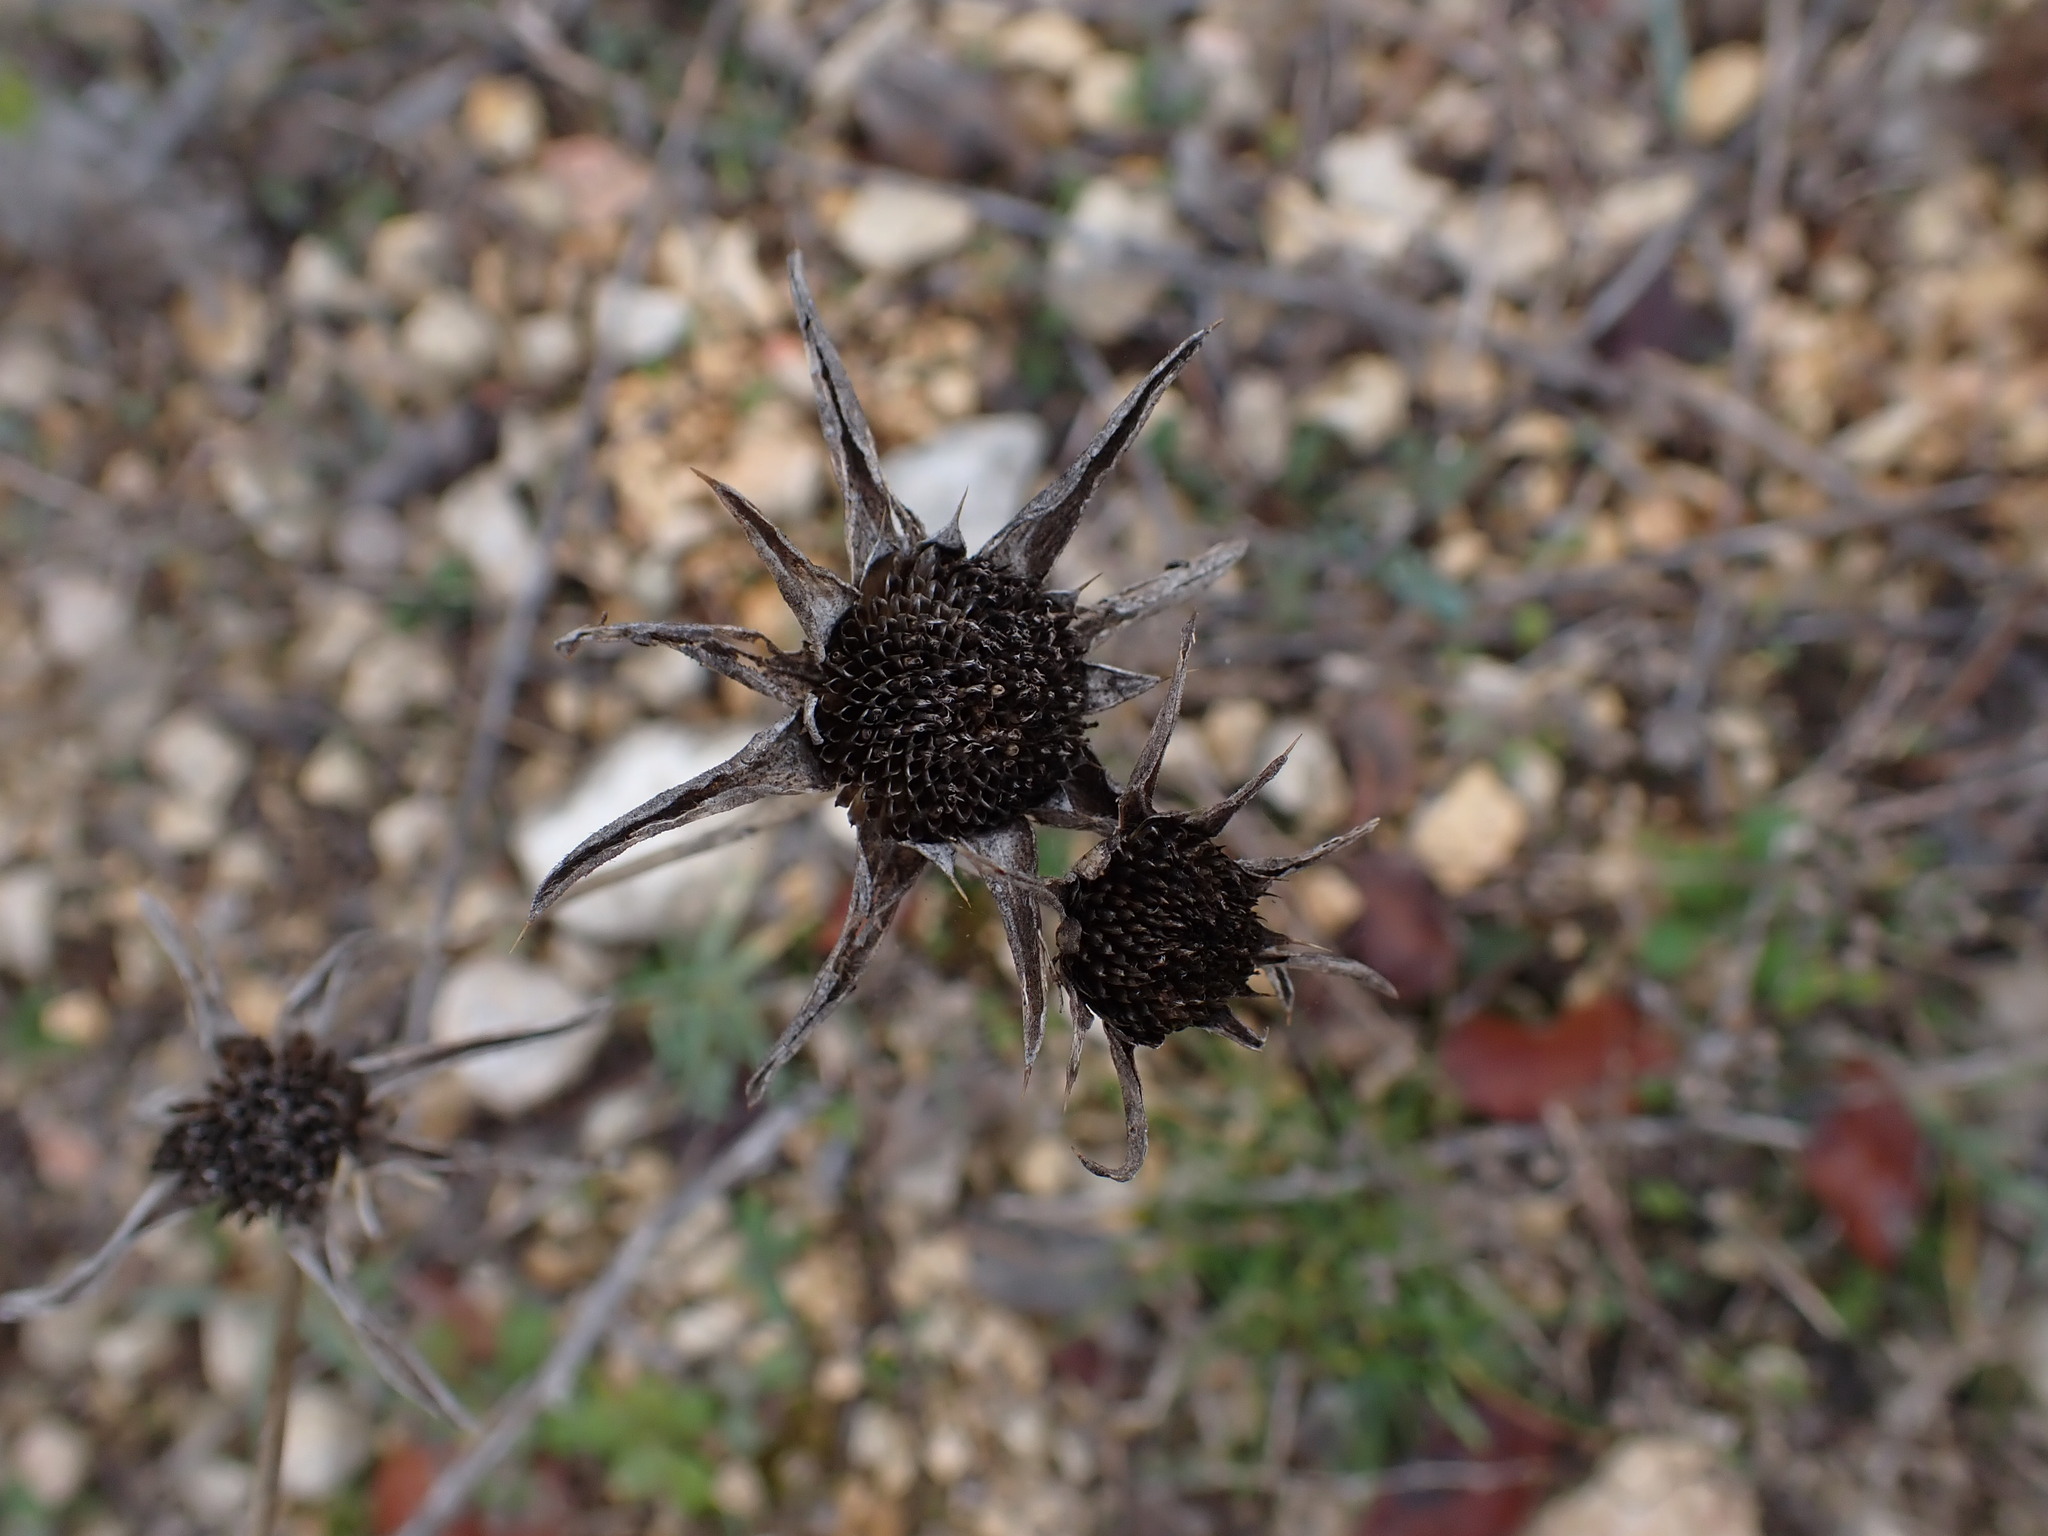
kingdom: Plantae
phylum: Tracheophyta
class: Magnoliopsida
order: Asterales
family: Asteraceae
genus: Pallenis
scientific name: Pallenis spinosa
